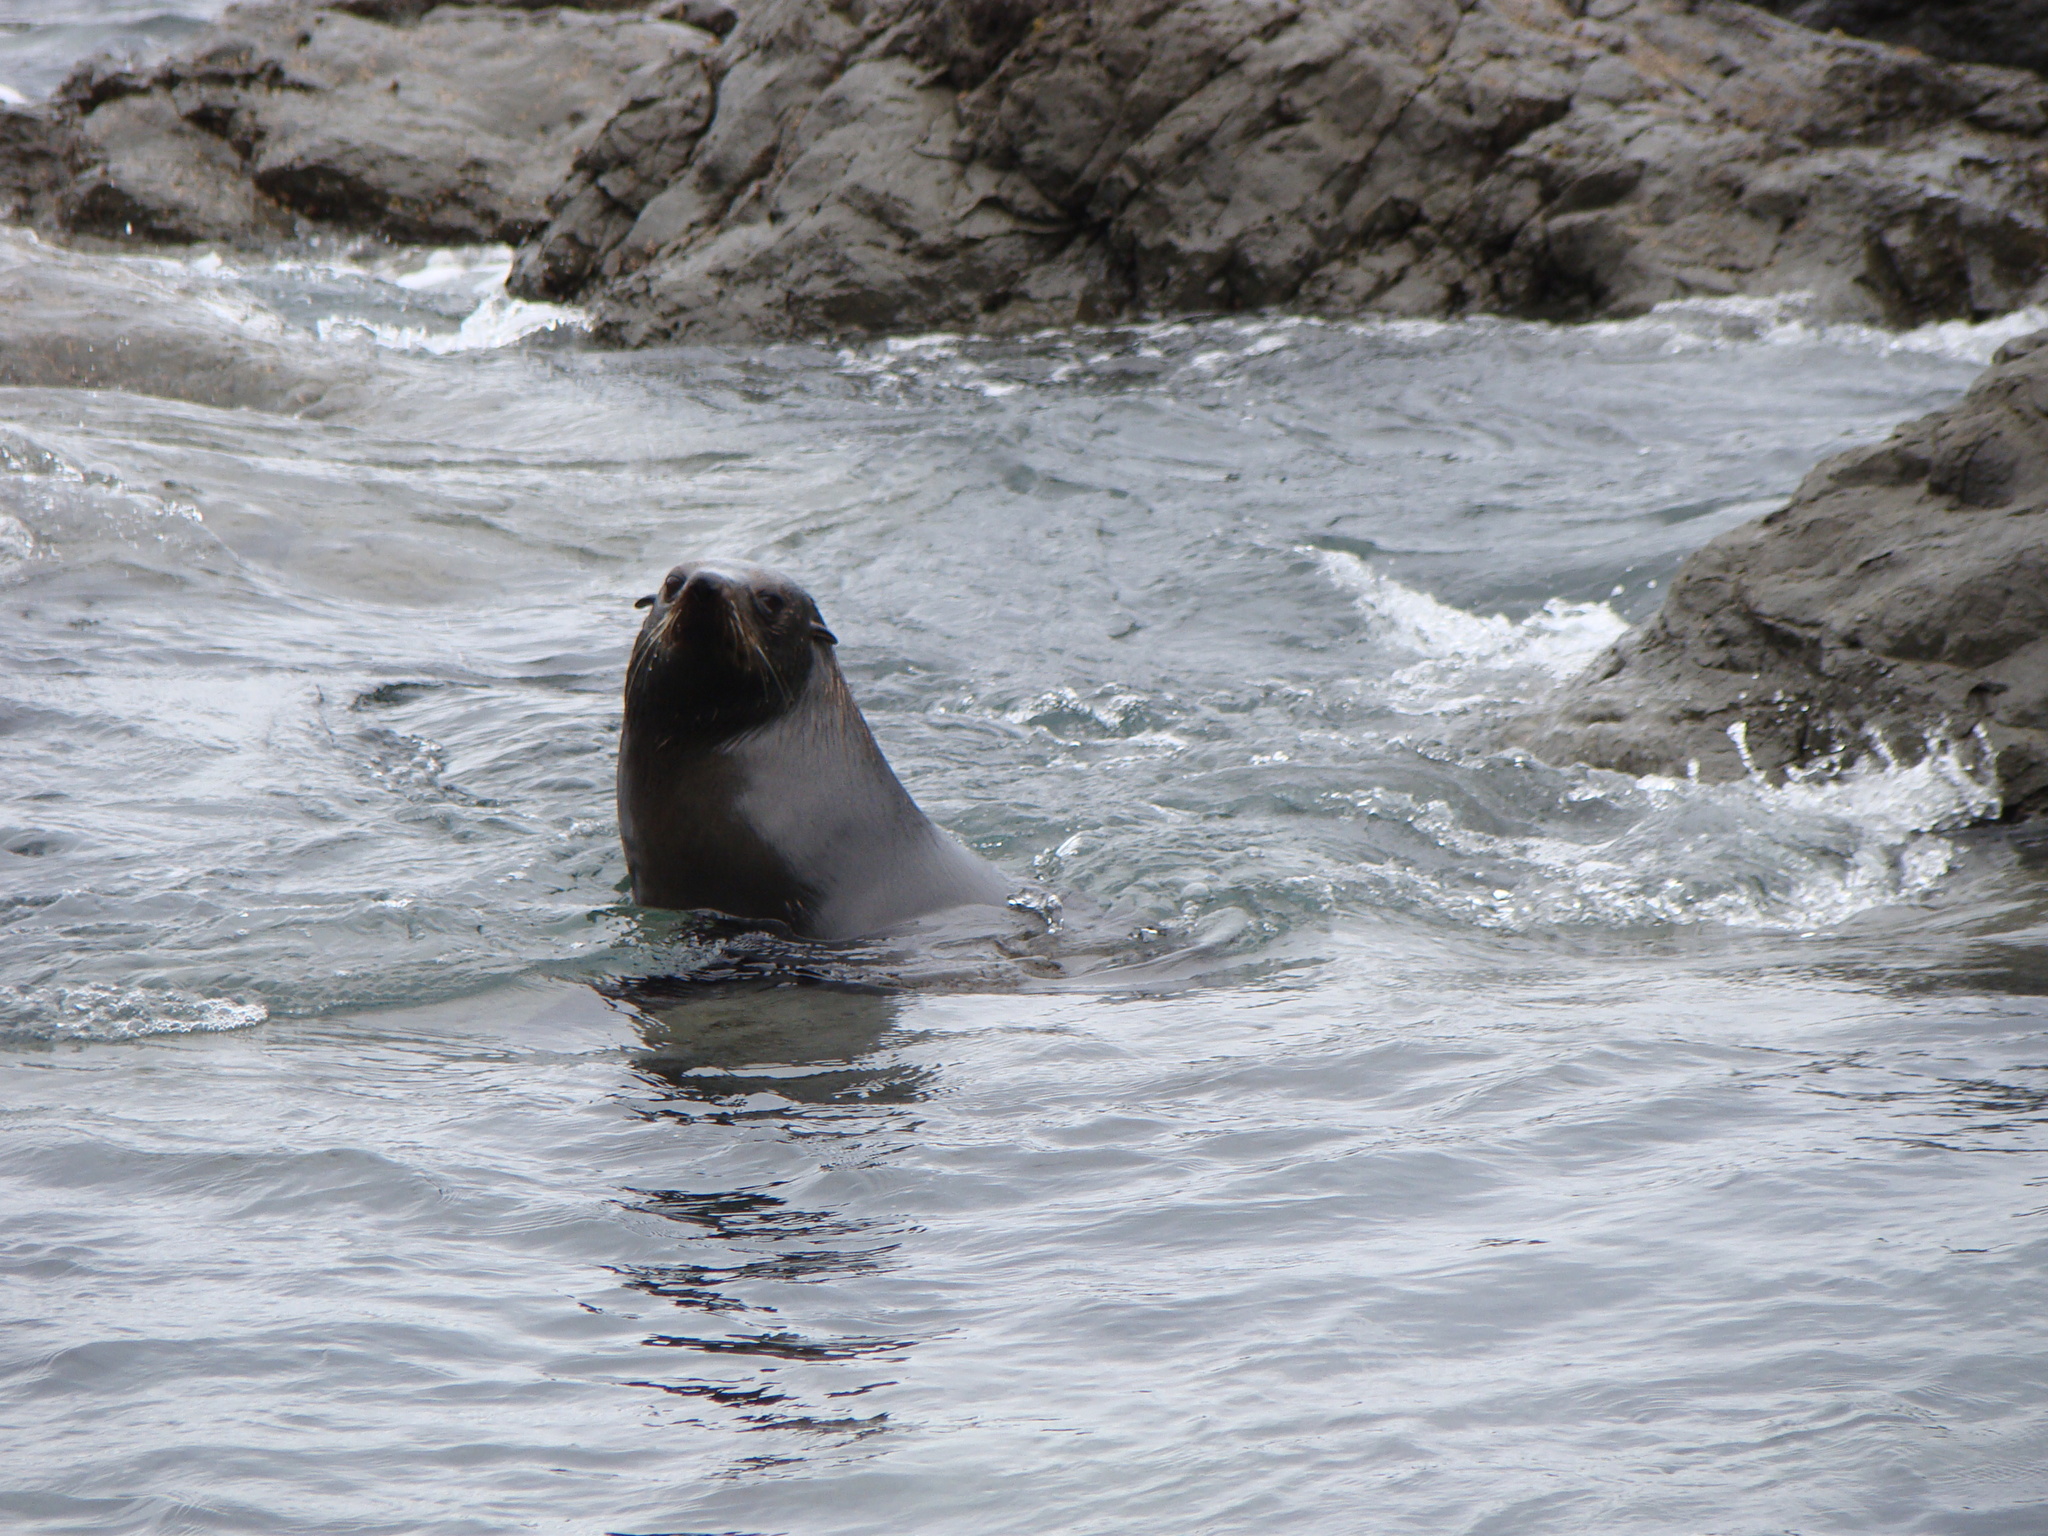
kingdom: Animalia
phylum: Chordata
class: Mammalia
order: Carnivora
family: Otariidae
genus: Arctocephalus
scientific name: Arctocephalus forsteri
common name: New zealand fur seal
